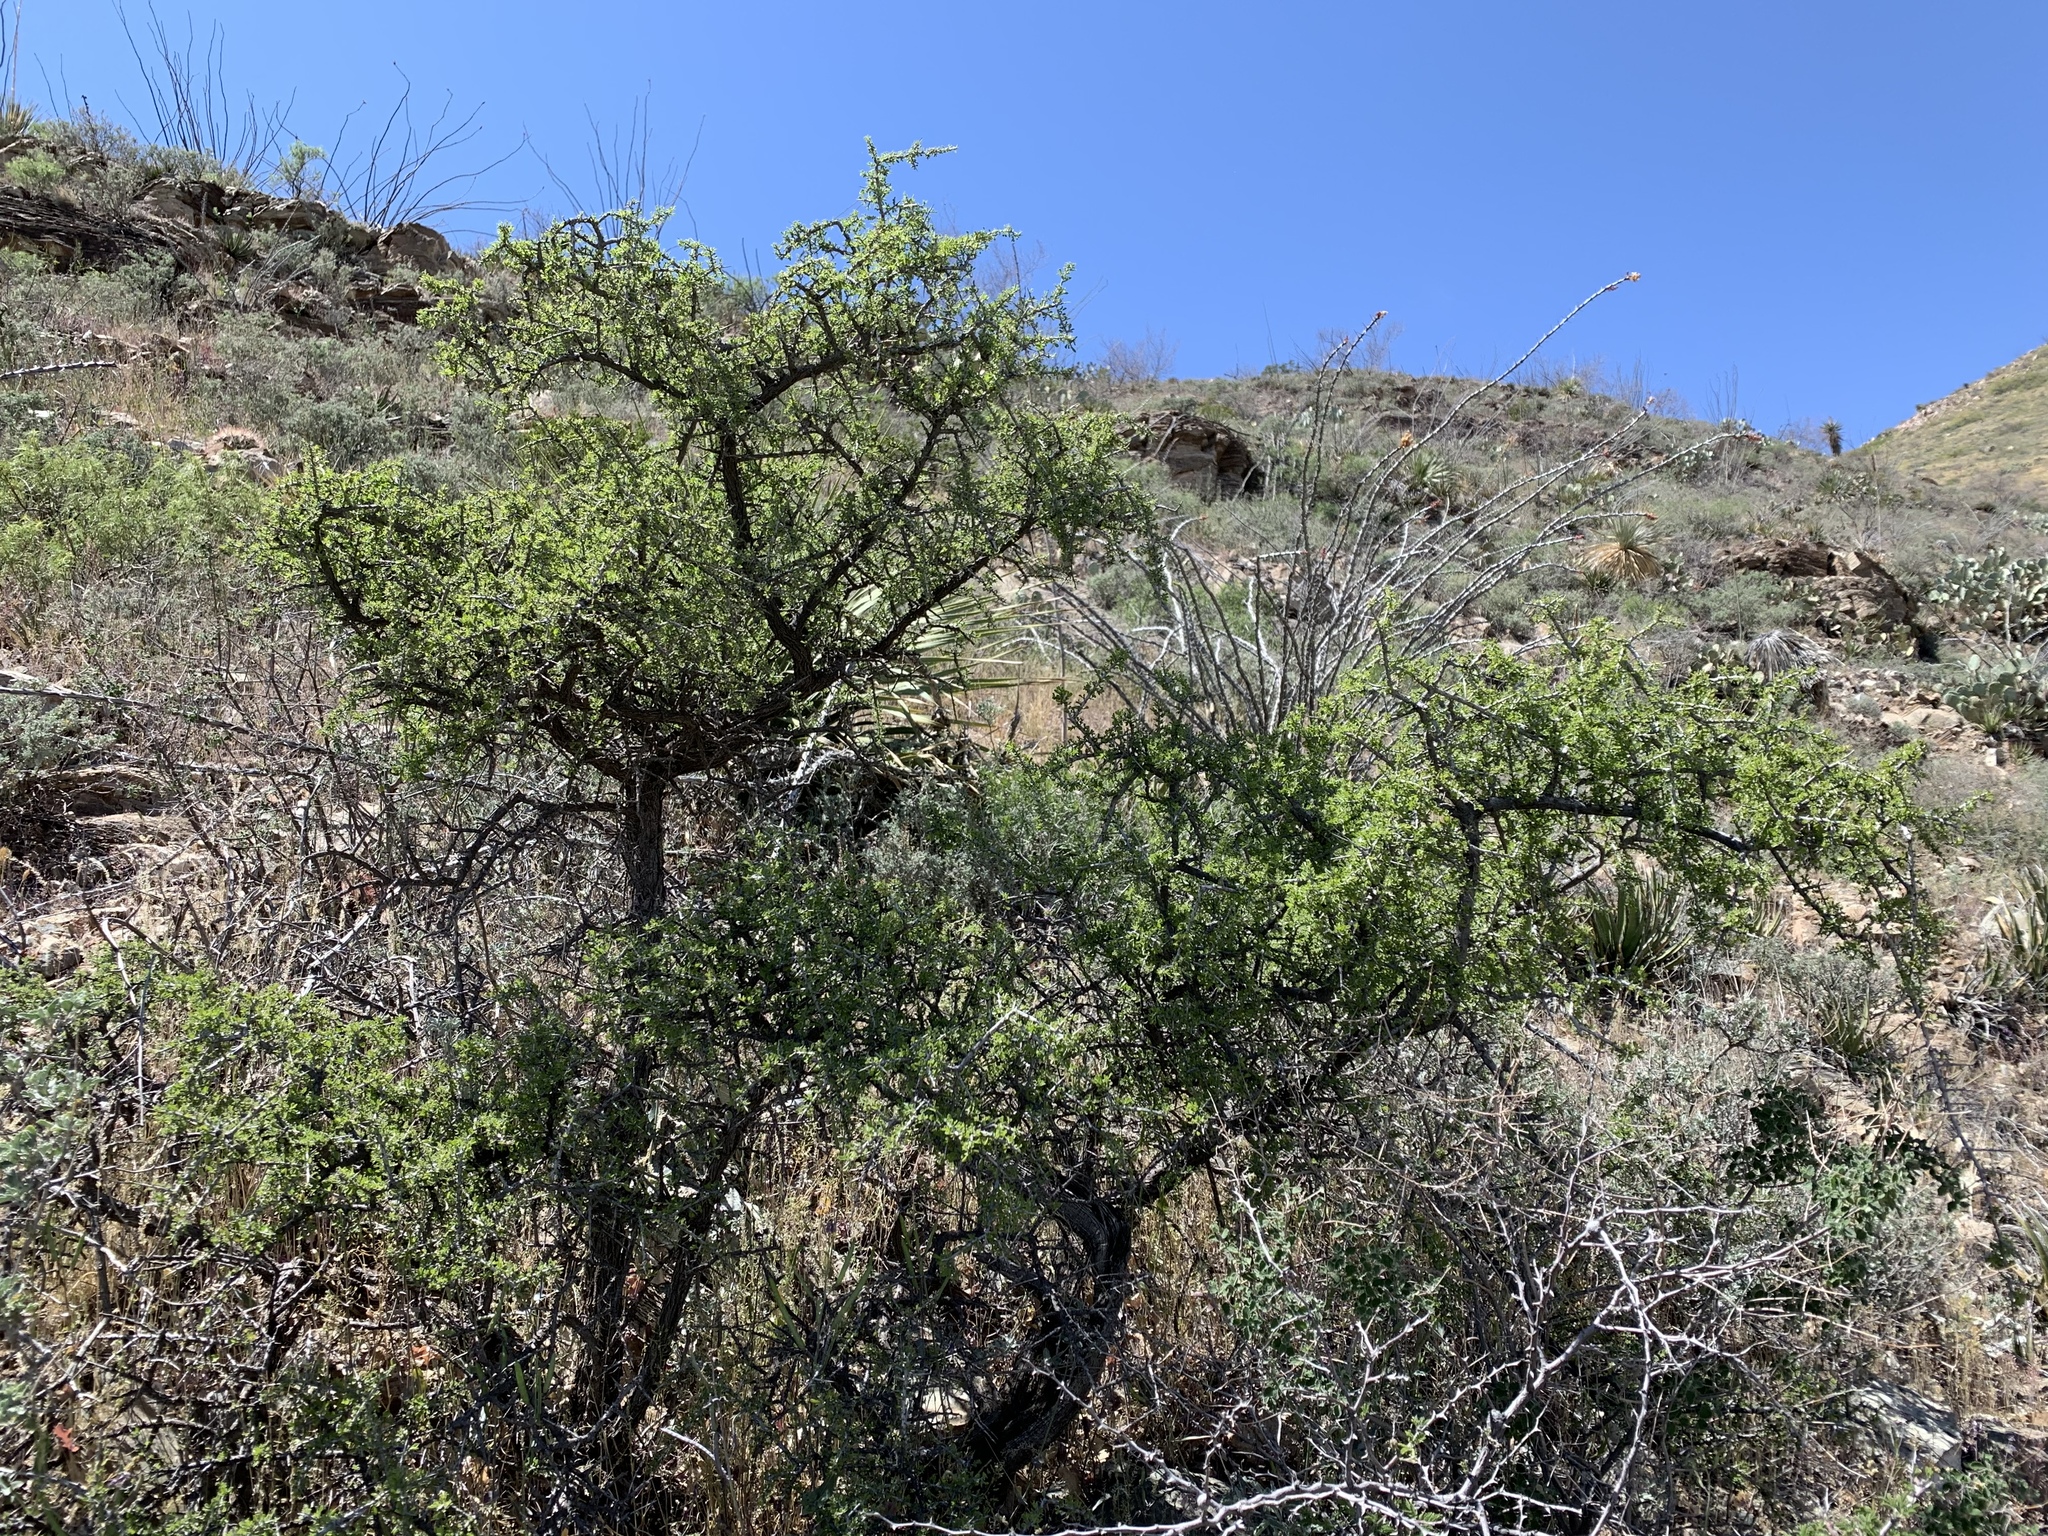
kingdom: Plantae
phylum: Tracheophyta
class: Magnoliopsida
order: Rosales
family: Rhamnaceae
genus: Condalia
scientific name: Condalia warnockii
